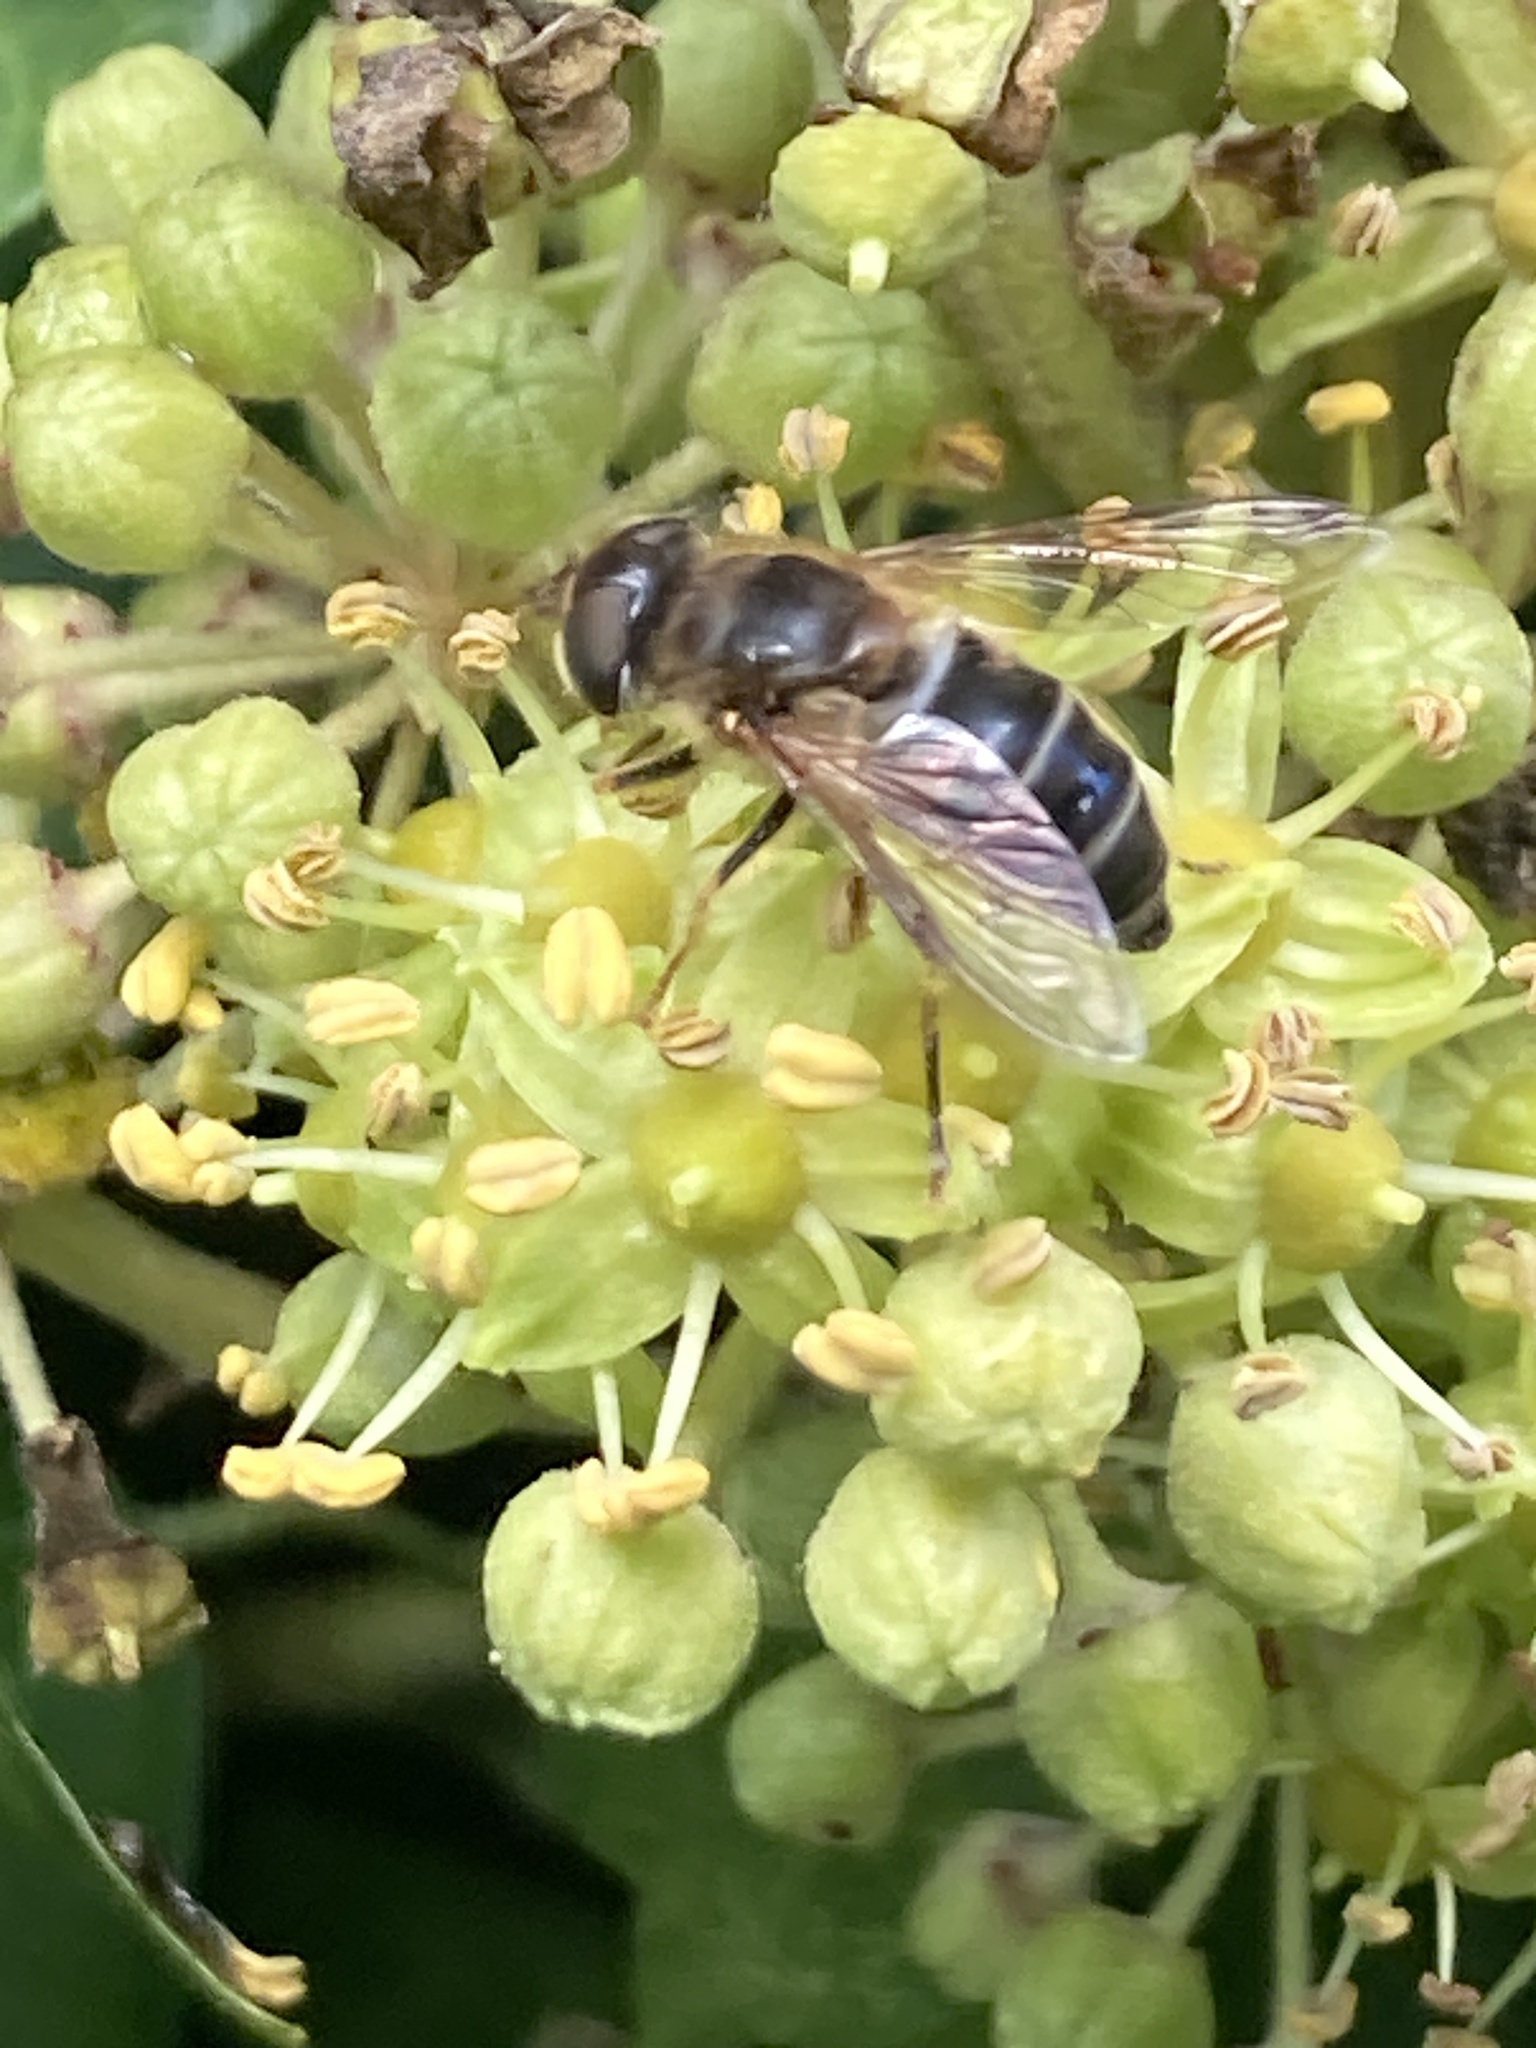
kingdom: Animalia
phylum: Arthropoda
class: Insecta
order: Diptera
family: Syrphidae
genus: Eristalis
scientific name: Eristalis pertinax
